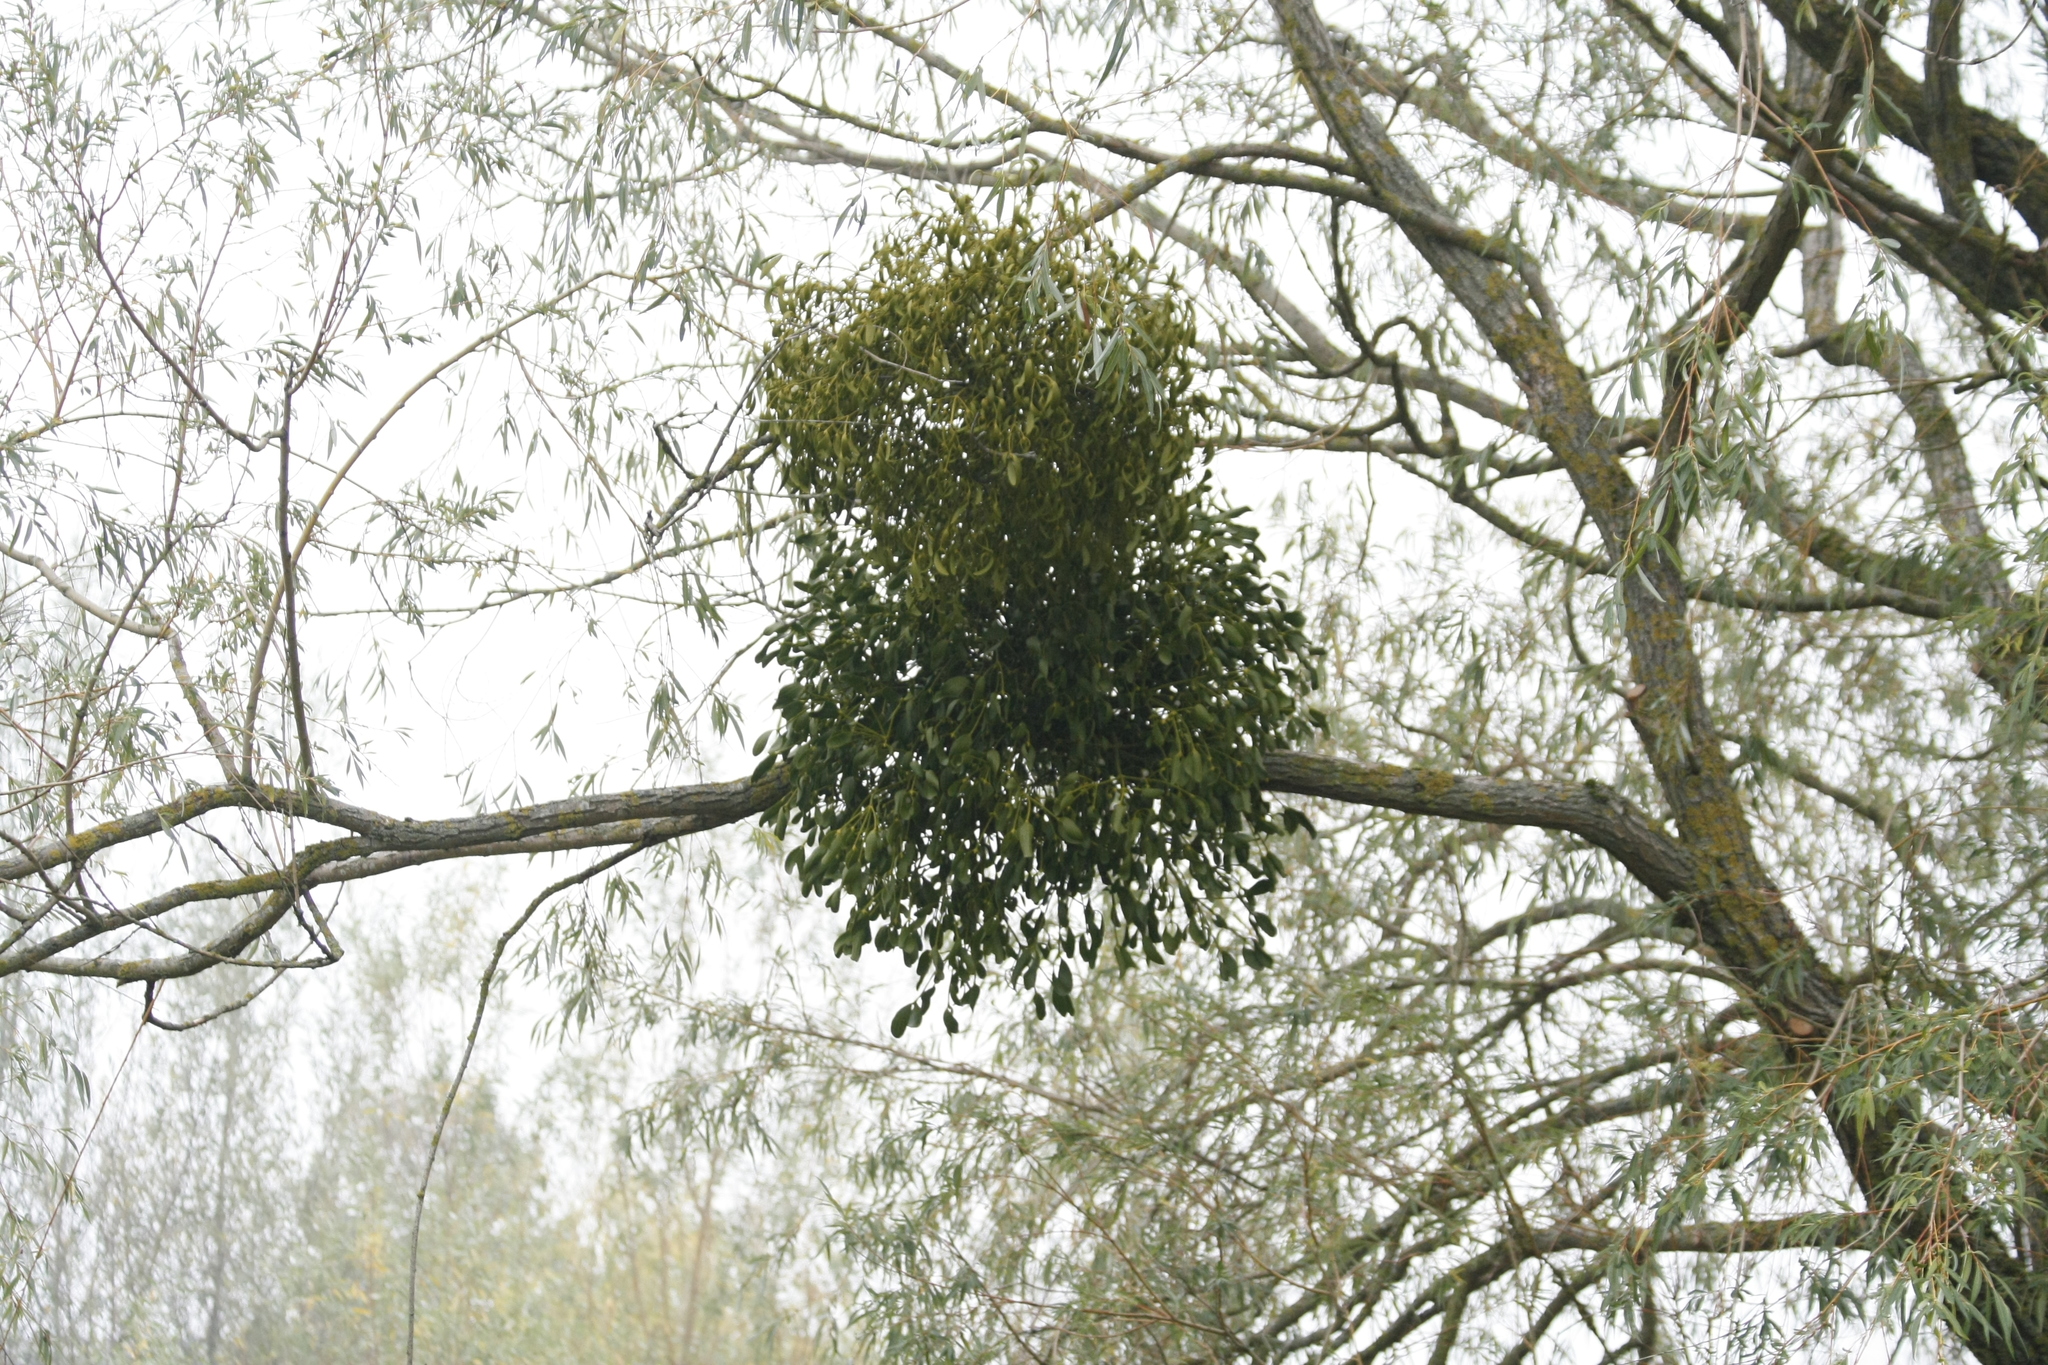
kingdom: Plantae
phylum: Tracheophyta
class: Magnoliopsida
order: Santalales
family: Viscaceae
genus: Viscum
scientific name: Viscum album
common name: Mistletoe
